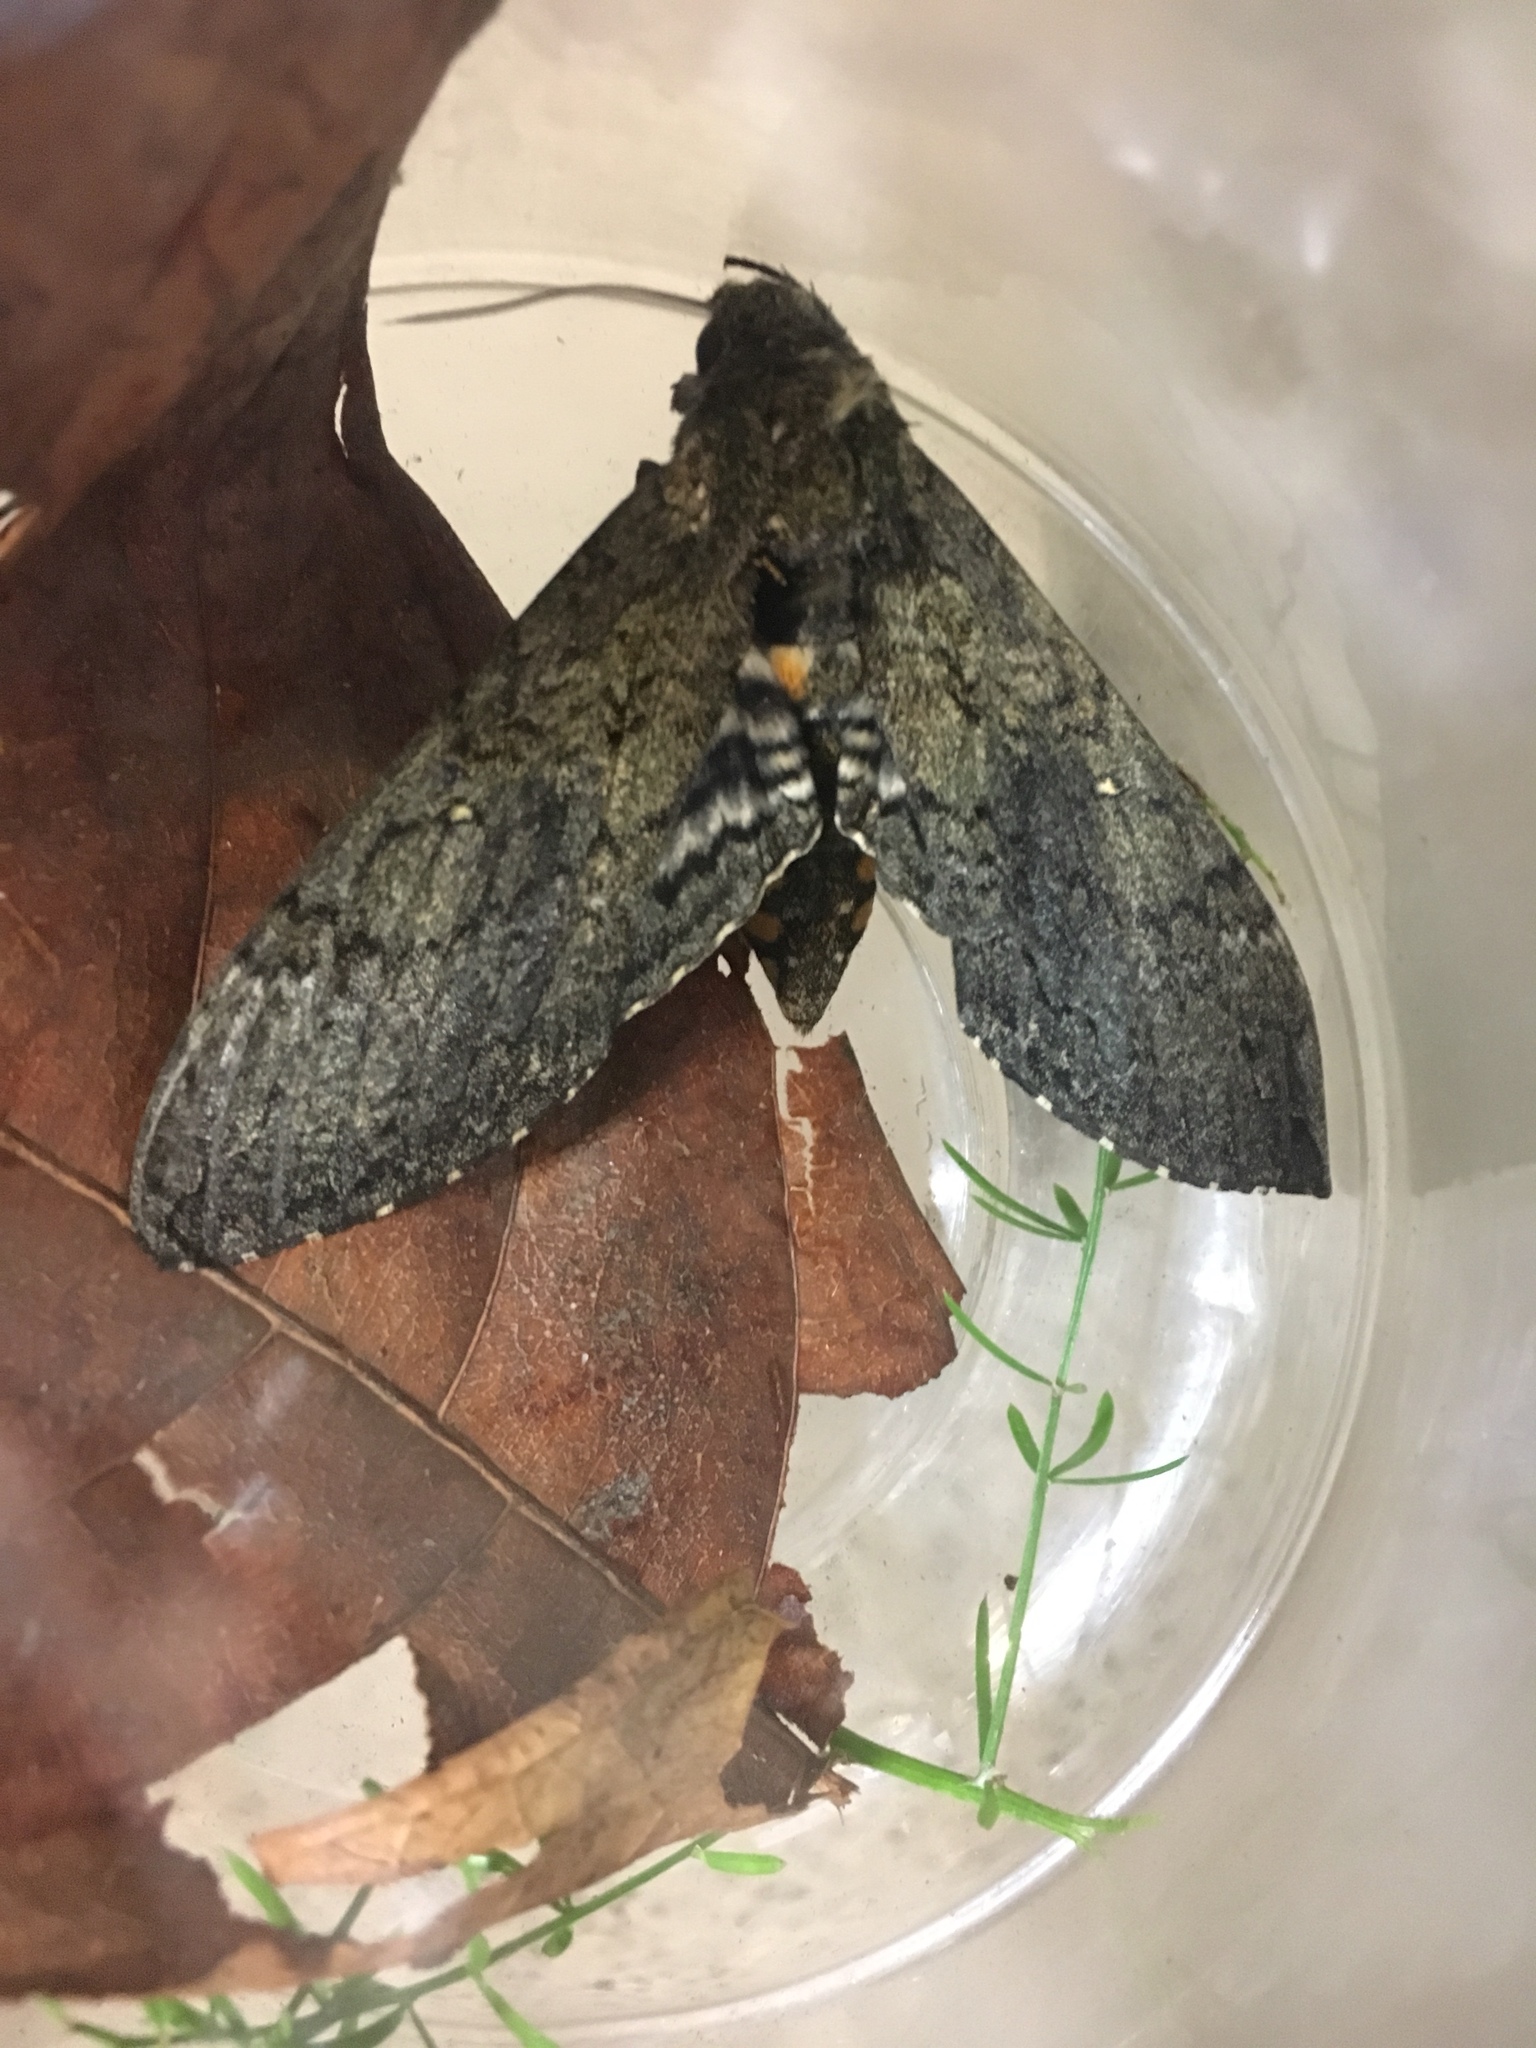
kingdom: Animalia
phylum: Arthropoda
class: Insecta
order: Lepidoptera
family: Sphingidae
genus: Manduca
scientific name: Manduca sexta
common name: Carolina sphinx
